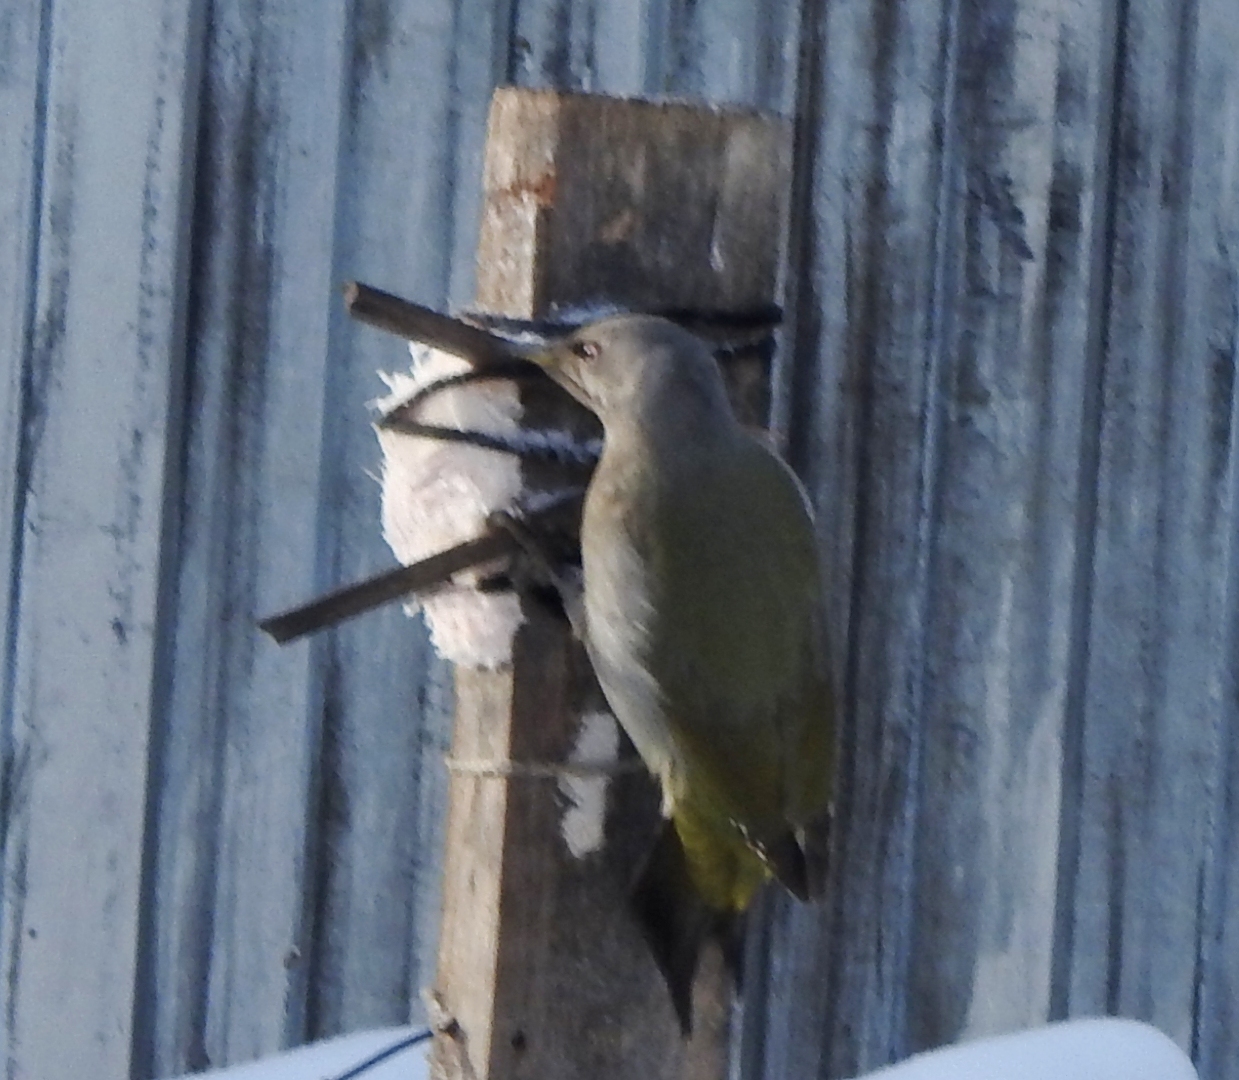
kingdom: Animalia
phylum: Chordata
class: Aves
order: Piciformes
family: Picidae
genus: Picus
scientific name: Picus canus
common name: Grey-headed woodpecker
